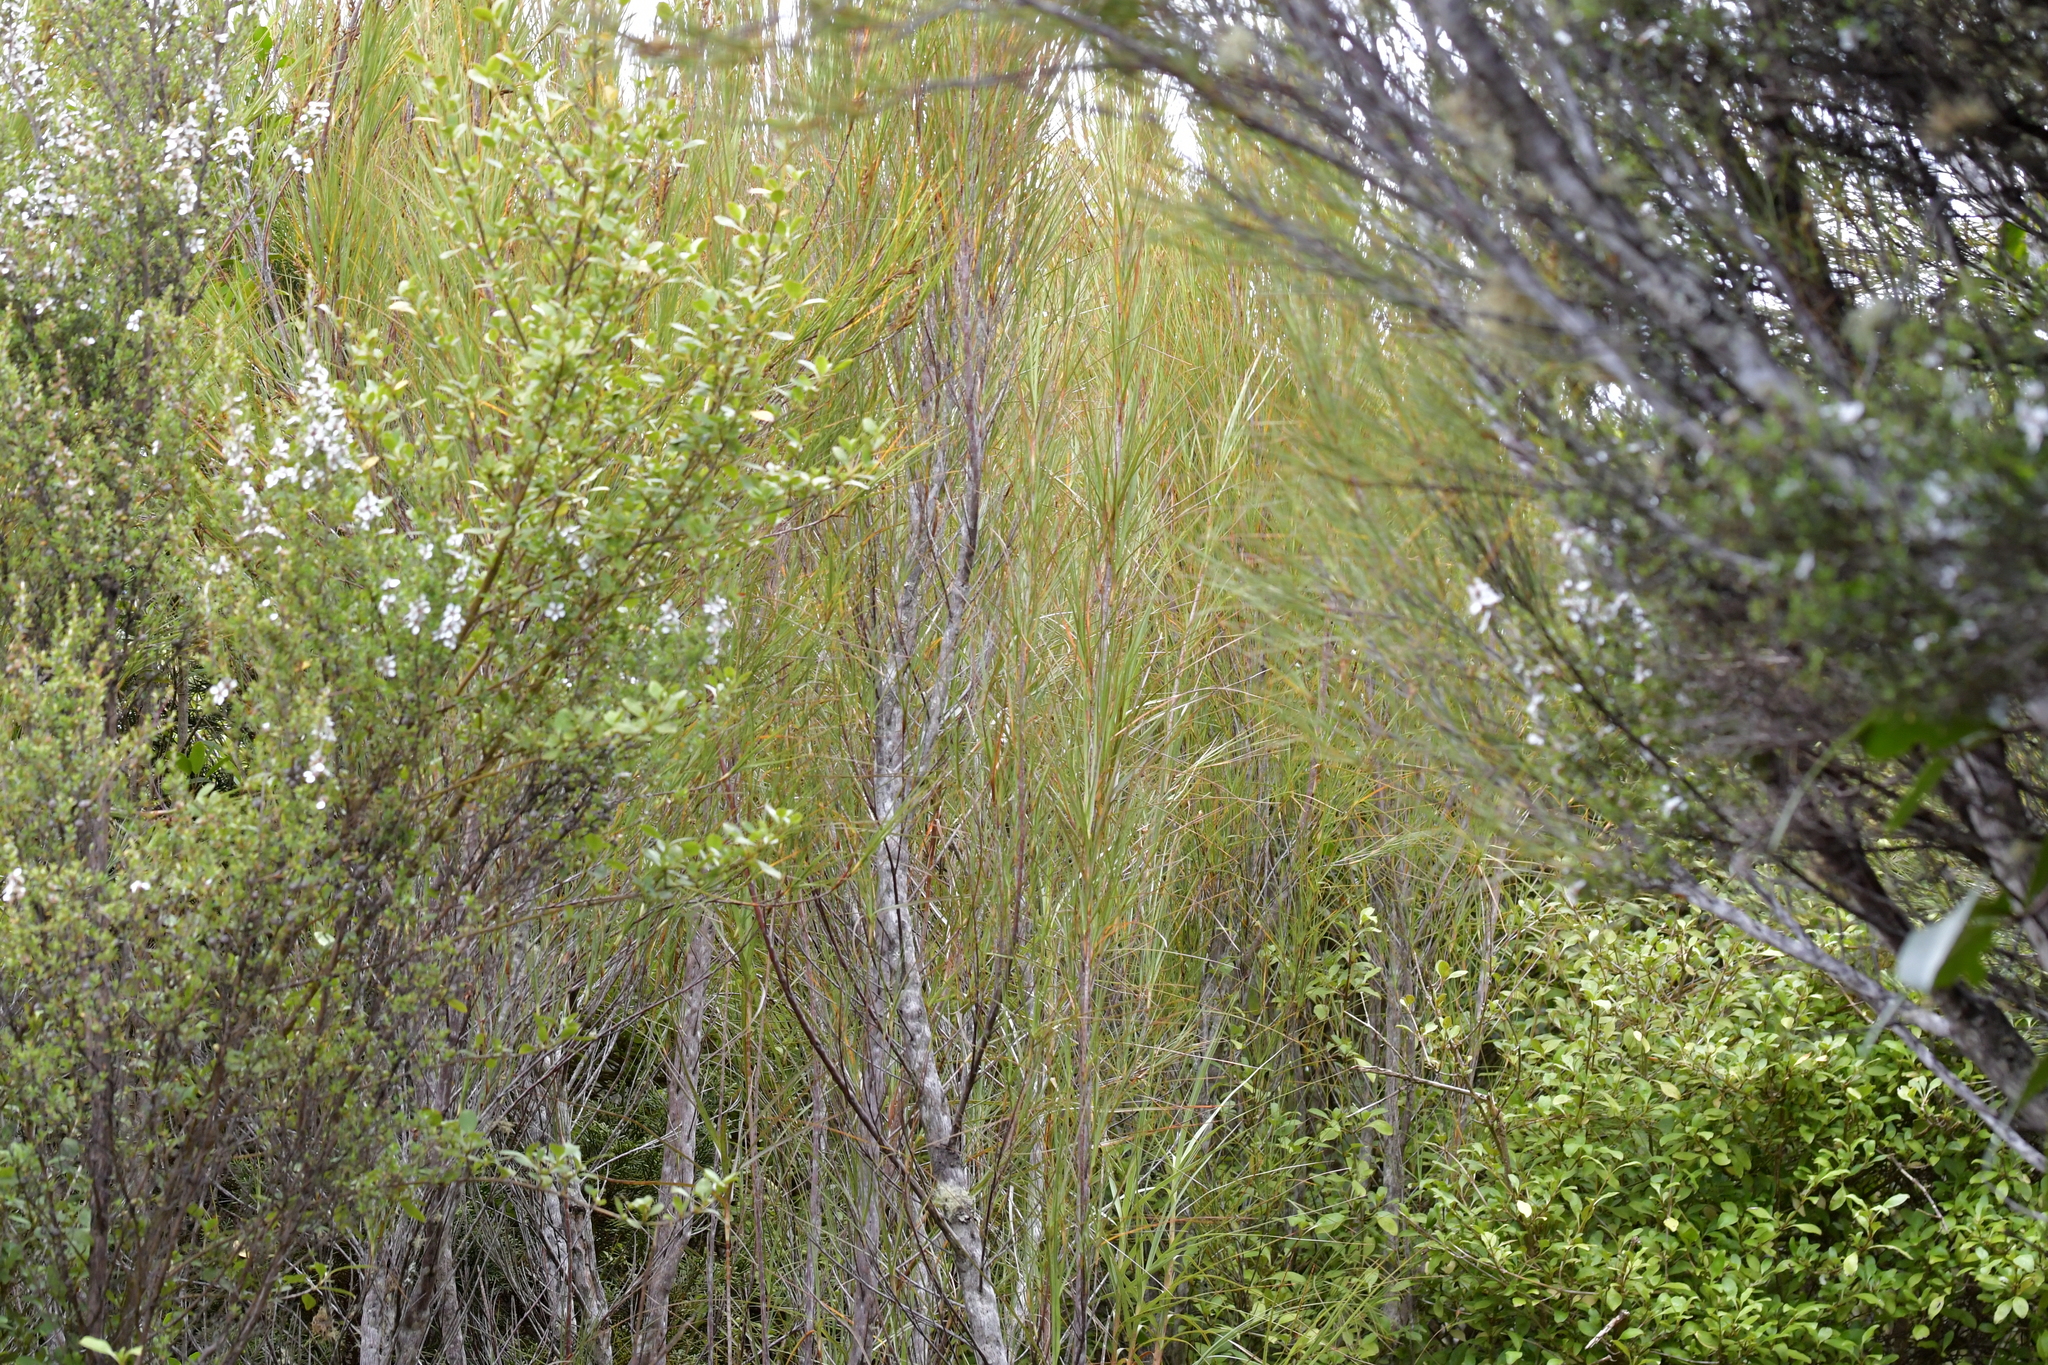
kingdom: Plantae
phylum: Tracheophyta
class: Magnoliopsida
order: Ericales
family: Ericaceae
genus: Dracophyllum
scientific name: Dracophyllum longifolium
